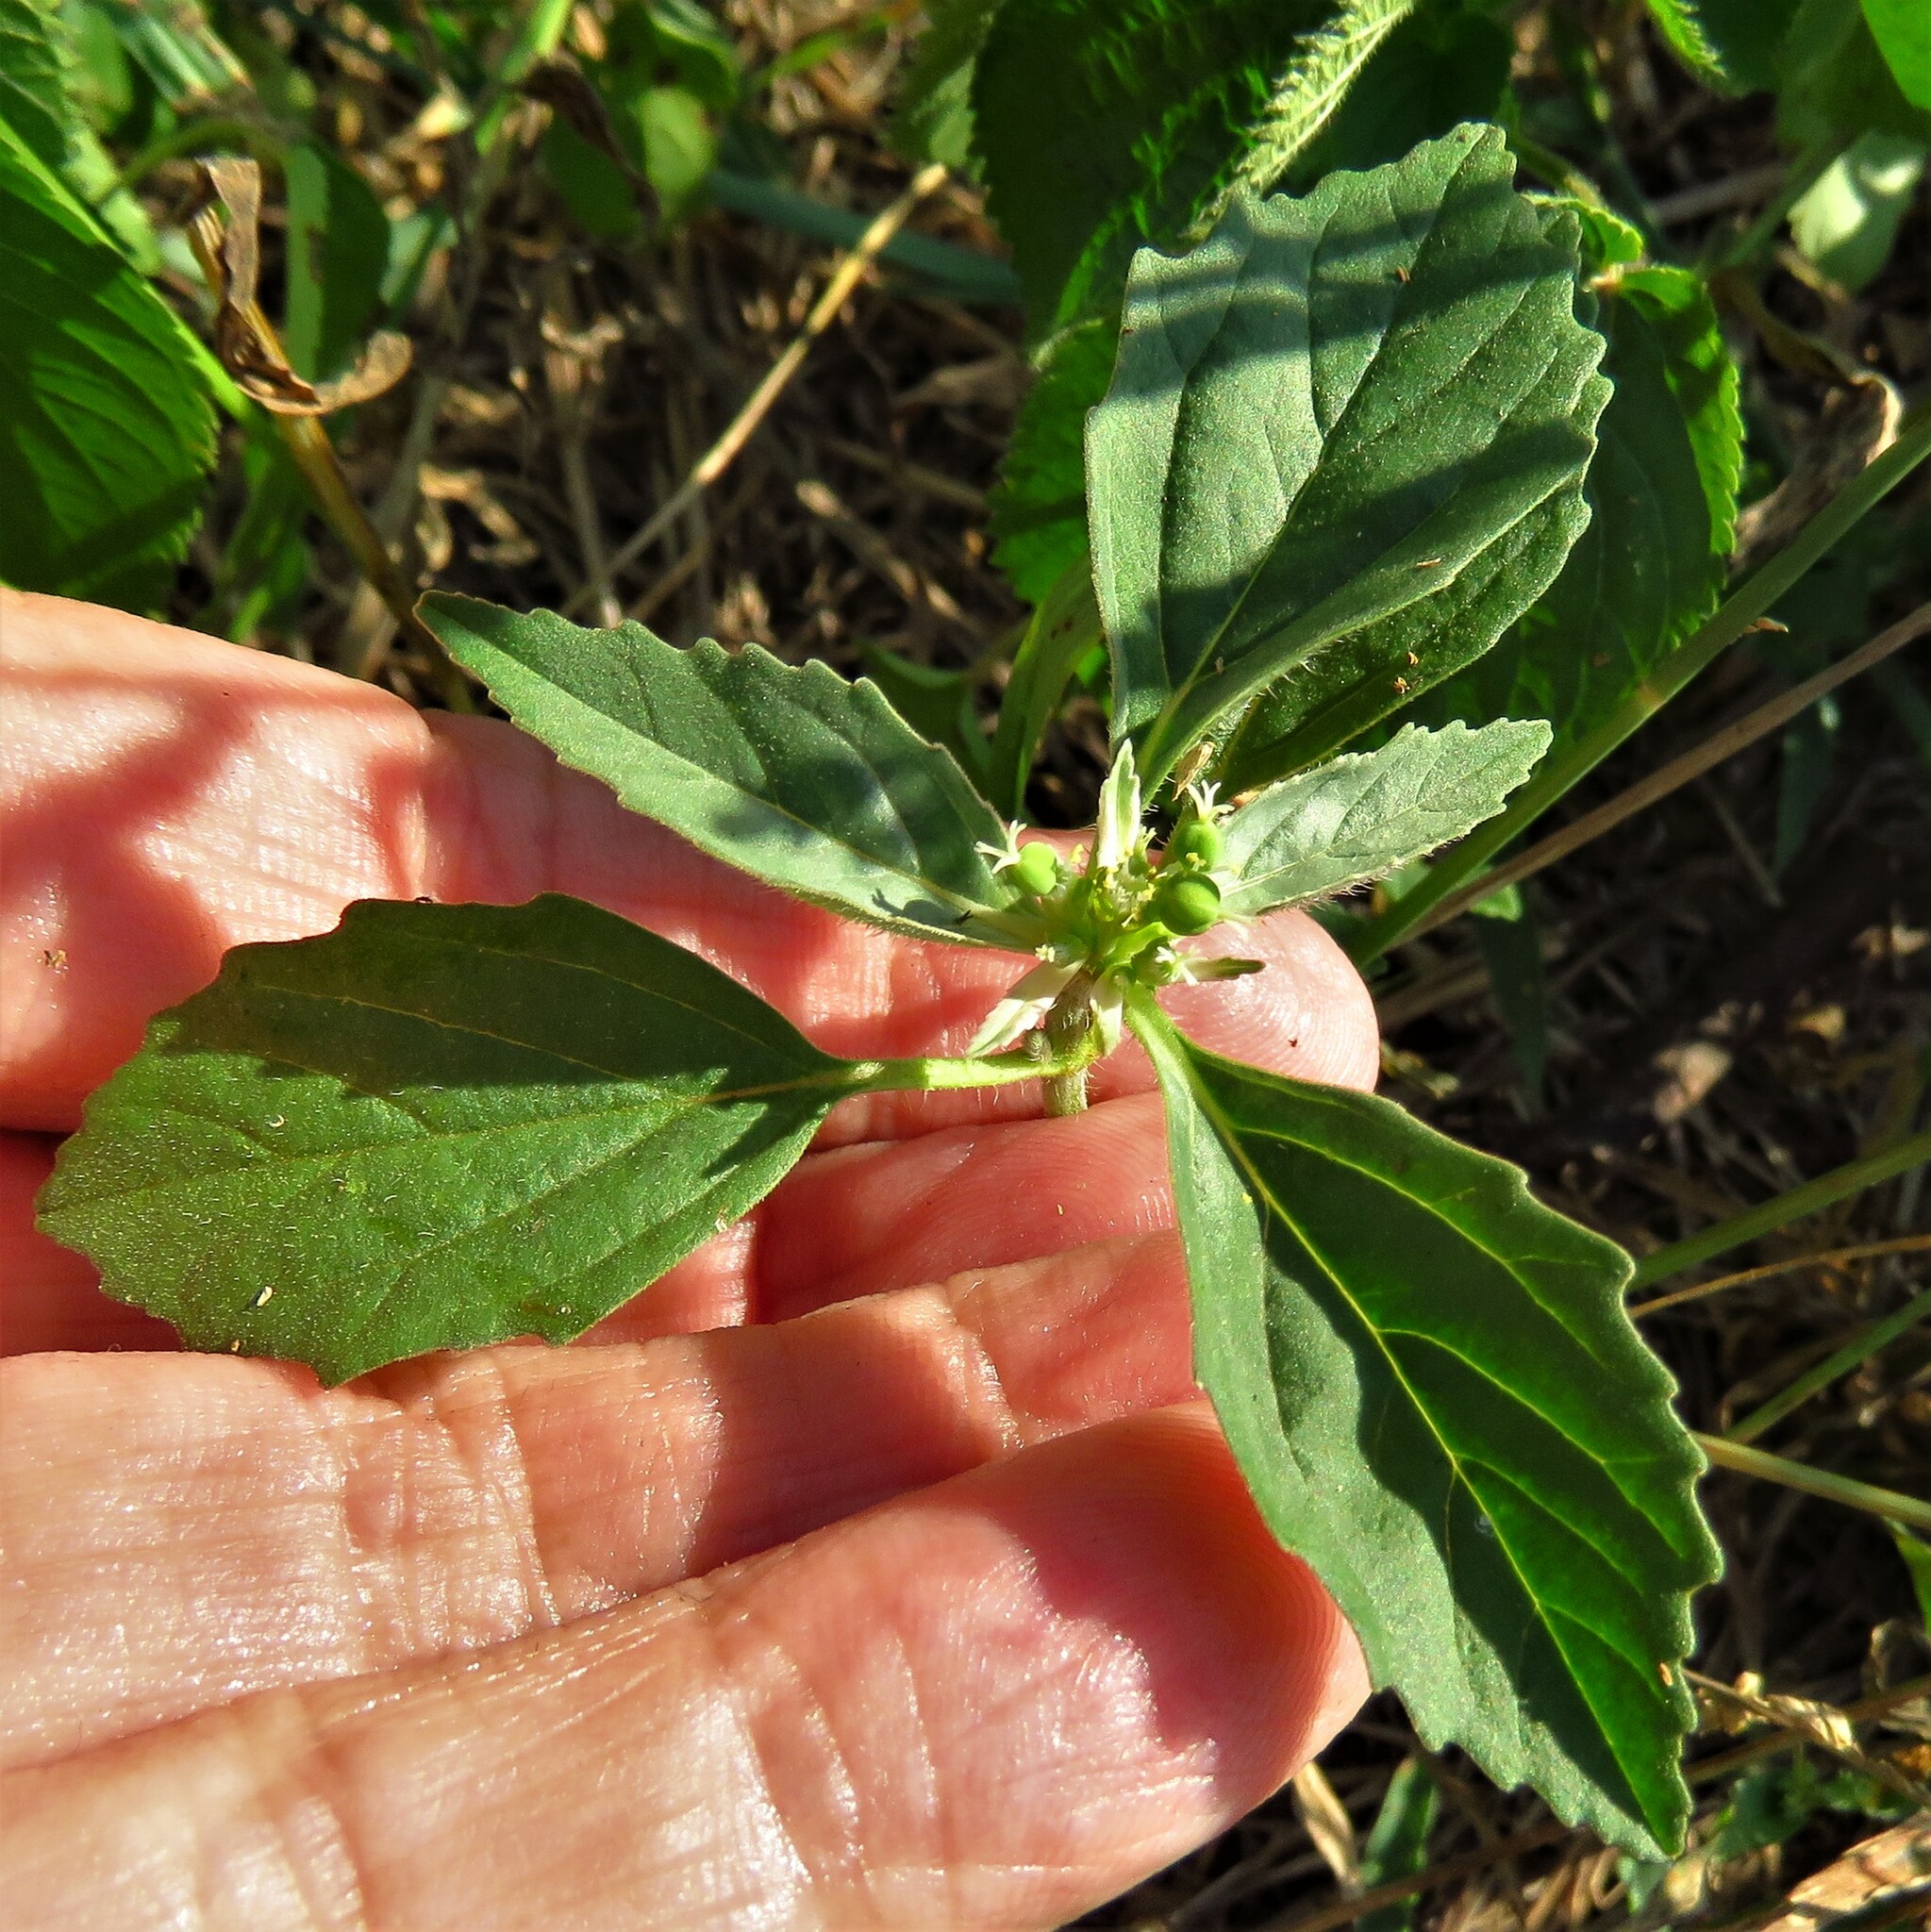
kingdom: Plantae
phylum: Tracheophyta
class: Magnoliopsida
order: Malpighiales
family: Euphorbiaceae
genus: Euphorbia
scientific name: Euphorbia dentata
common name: Dentate spurge
